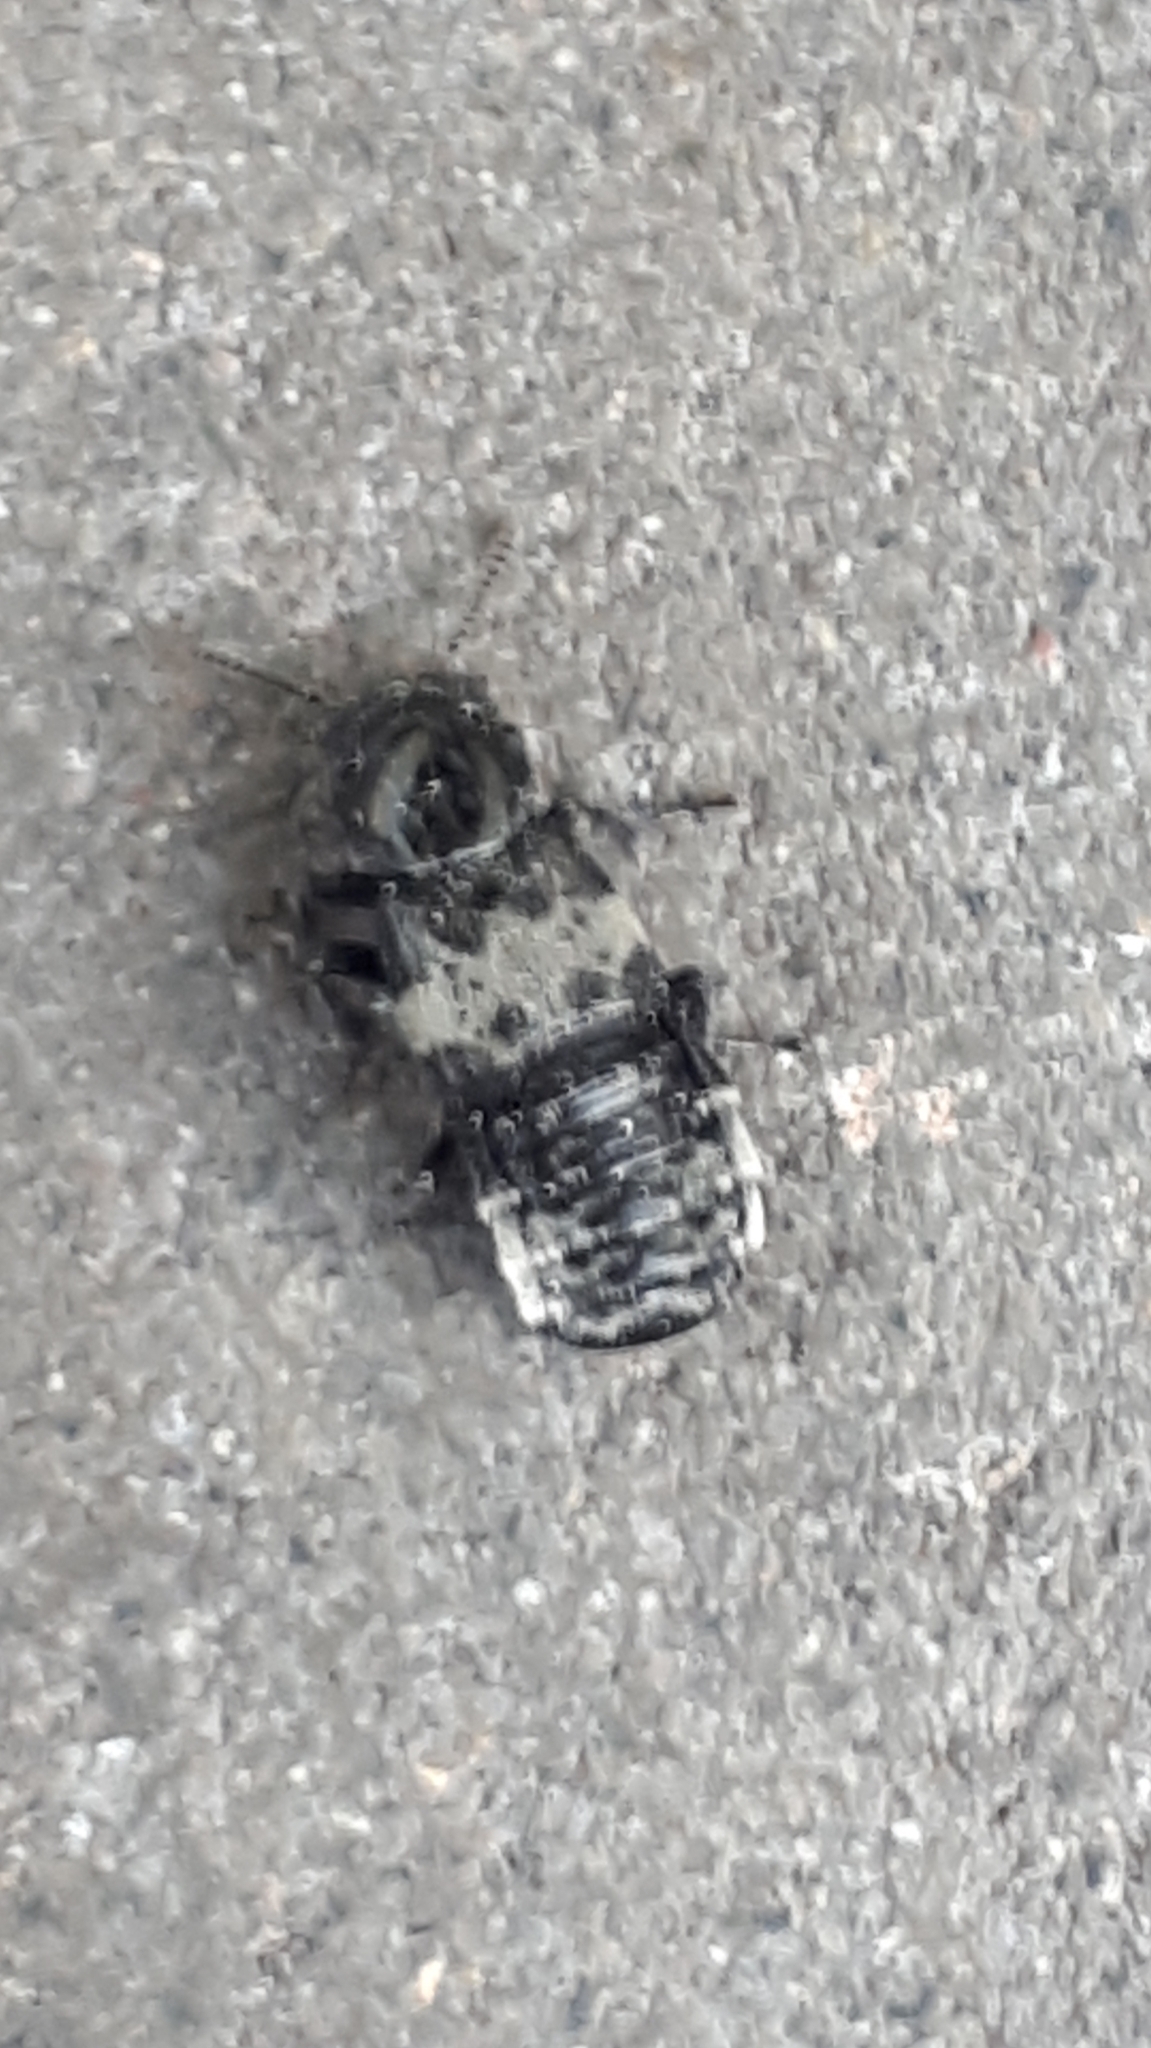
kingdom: Animalia
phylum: Arthropoda
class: Insecta
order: Coleoptera
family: Staphylinidae
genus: Creophilus
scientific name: Creophilus maxillosus
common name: Hairy rove beetle
